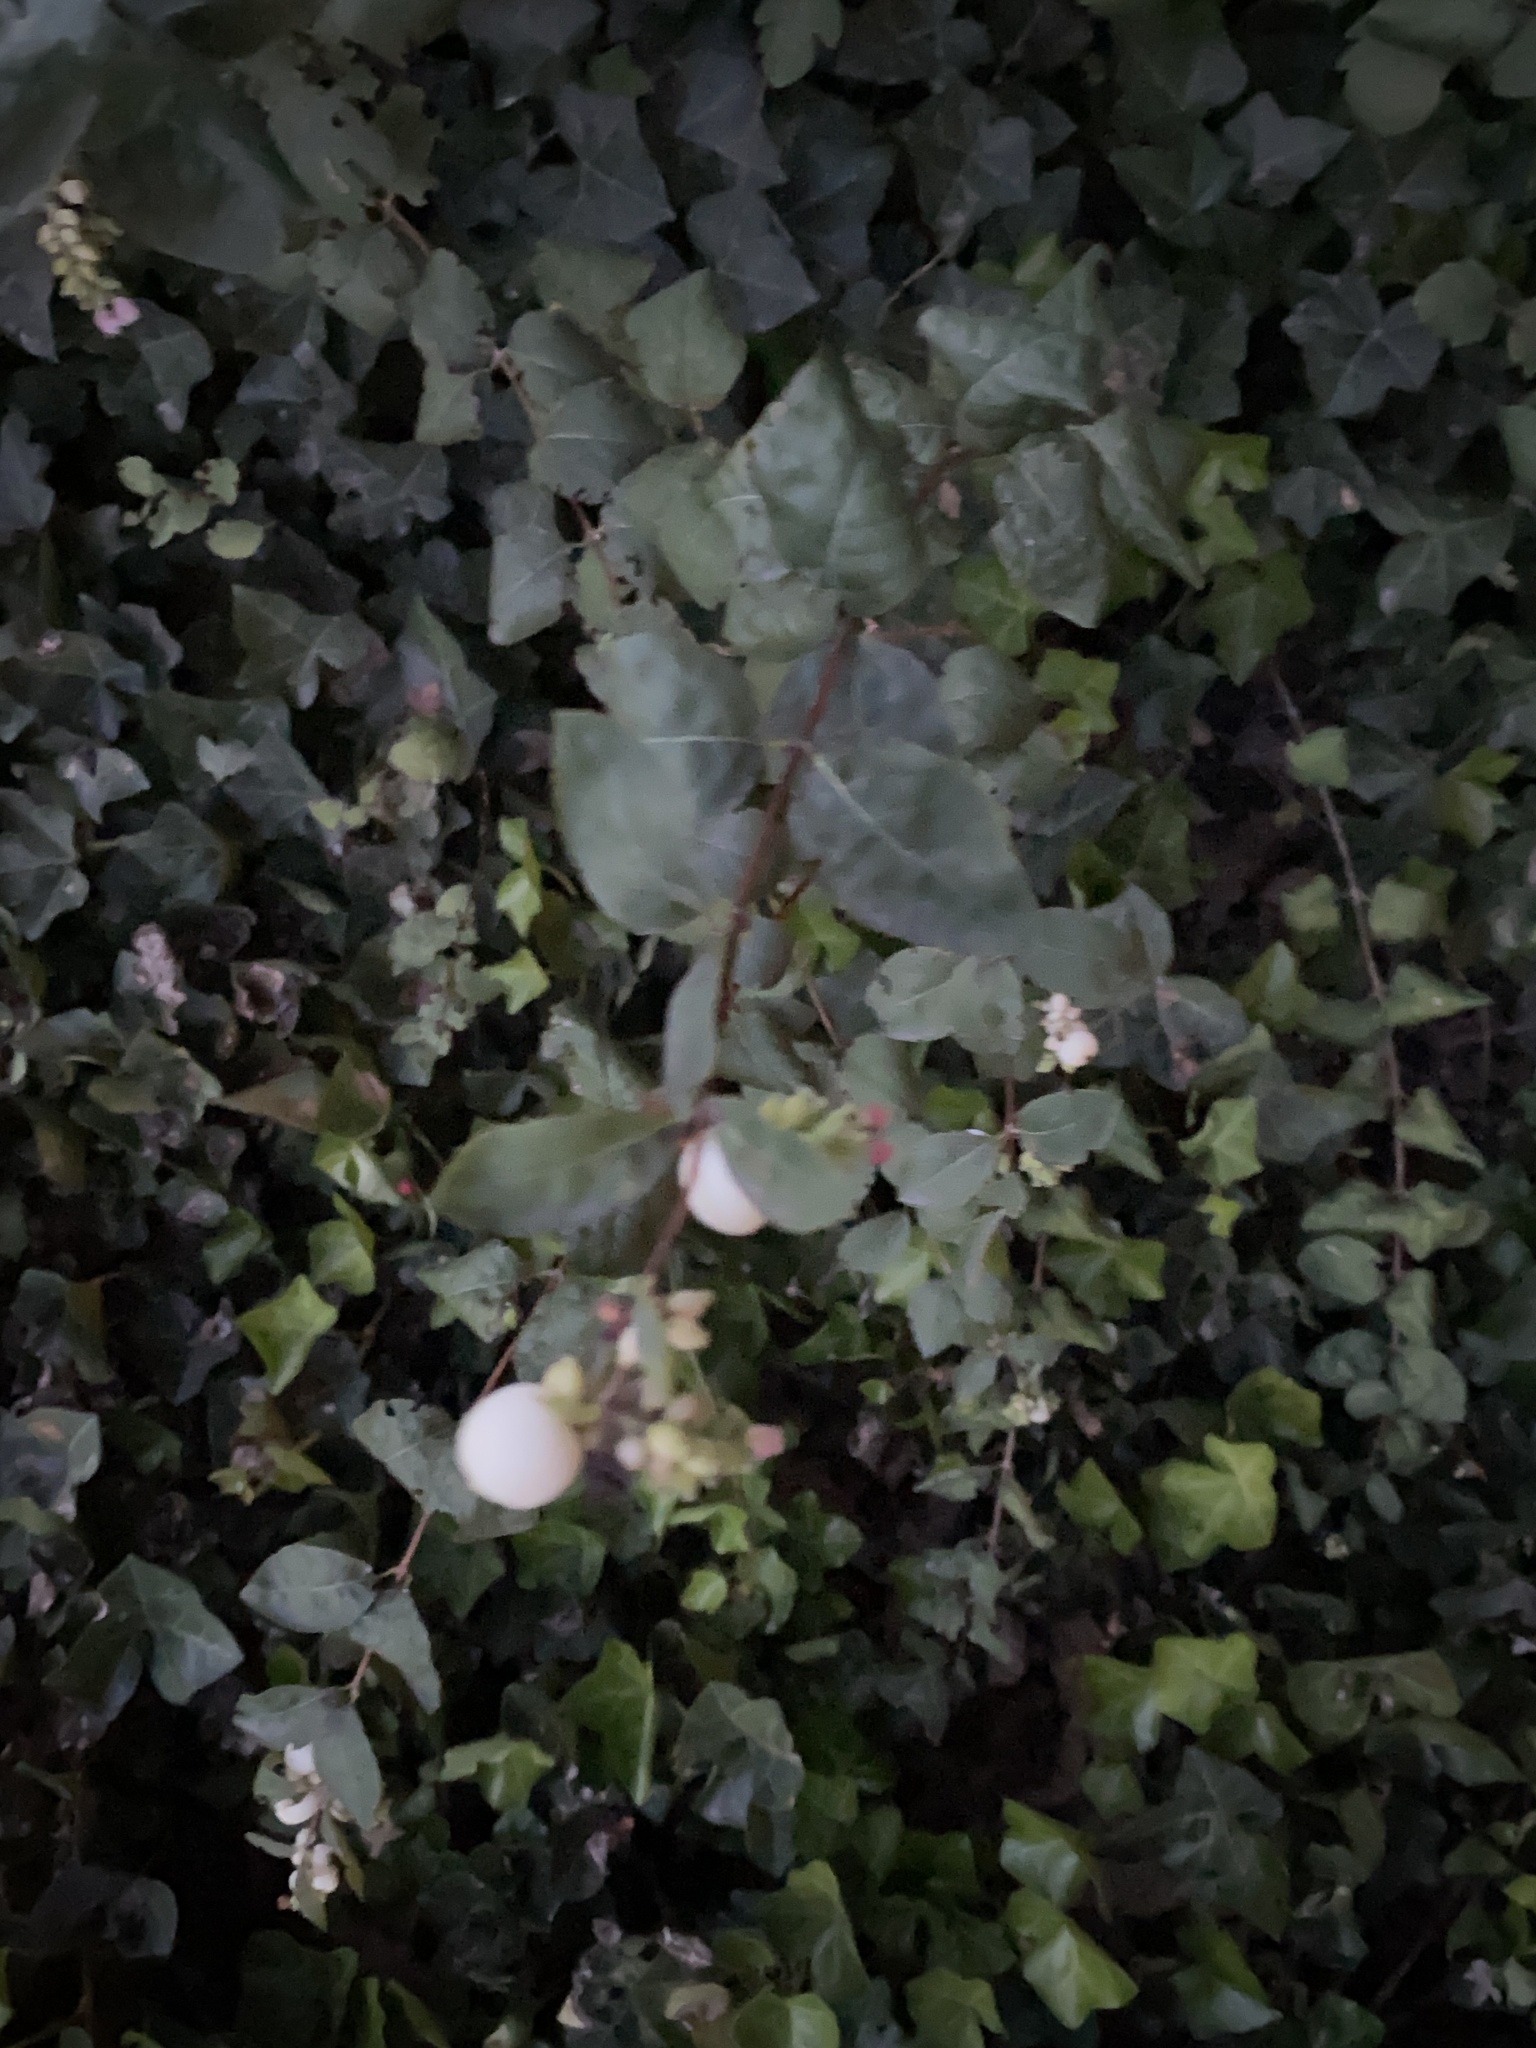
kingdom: Plantae
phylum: Tracheophyta
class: Magnoliopsida
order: Dipsacales
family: Caprifoliaceae
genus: Symphoricarpos
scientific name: Symphoricarpos albus
